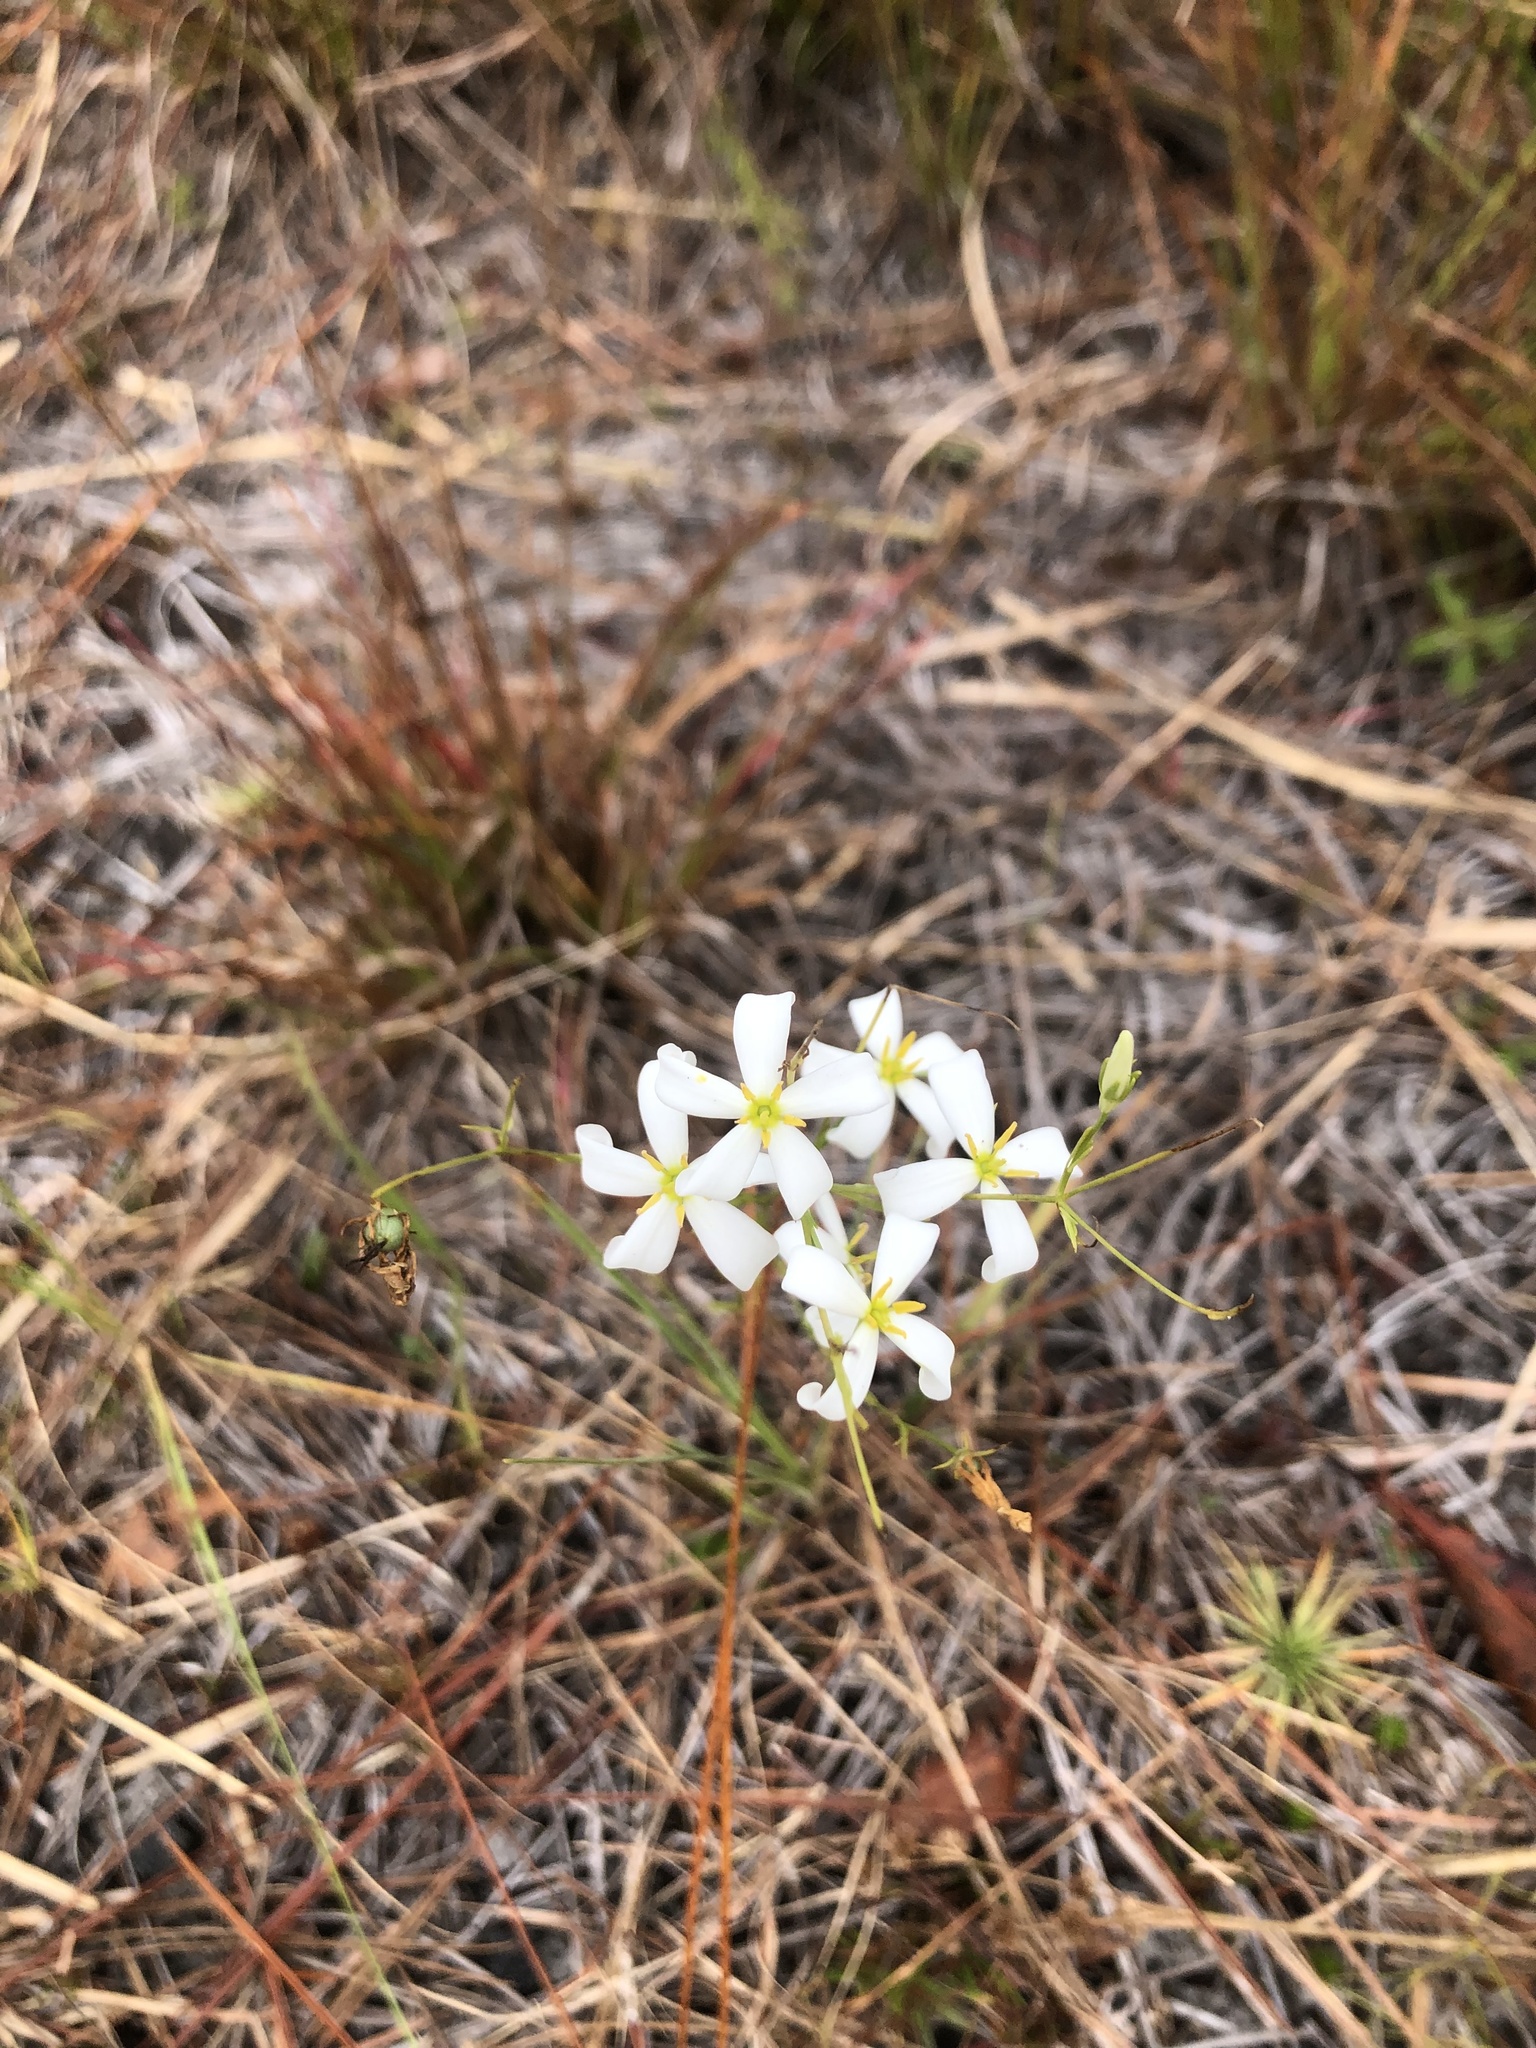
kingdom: Plantae
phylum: Tracheophyta
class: Magnoliopsida
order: Gentianales
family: Gentianaceae
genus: Sabatia
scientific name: Sabatia brevifolia
